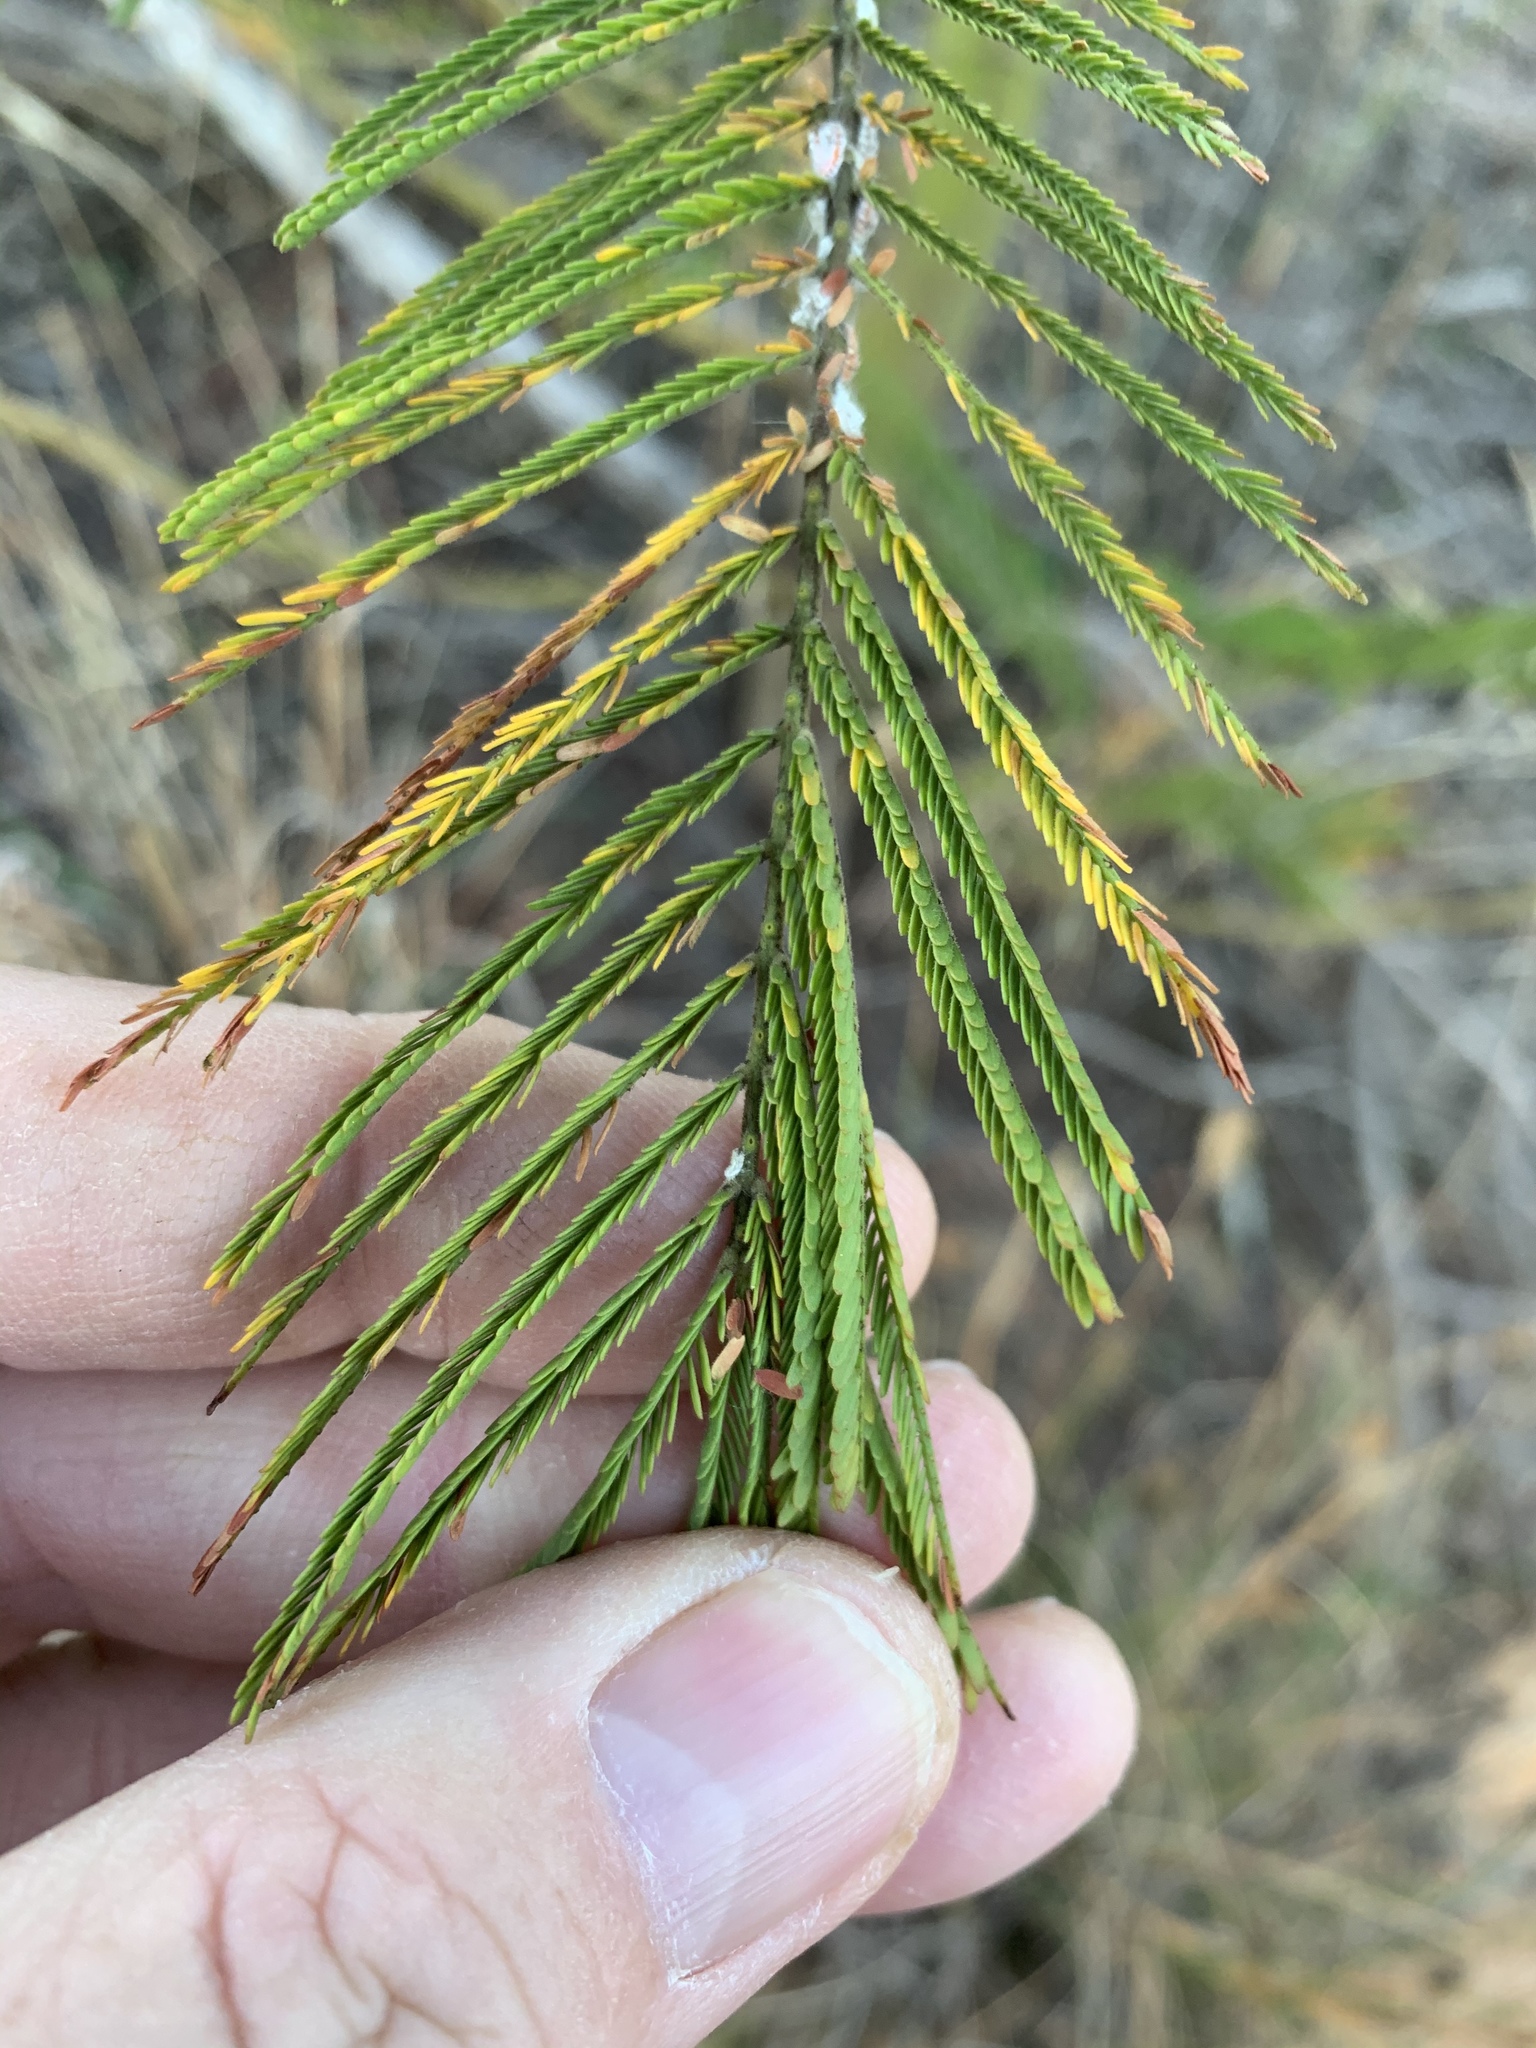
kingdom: Plantae
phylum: Tracheophyta
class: Magnoliopsida
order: Fabales
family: Fabaceae
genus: Acacia
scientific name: Acacia mearnsii
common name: Black wattle
